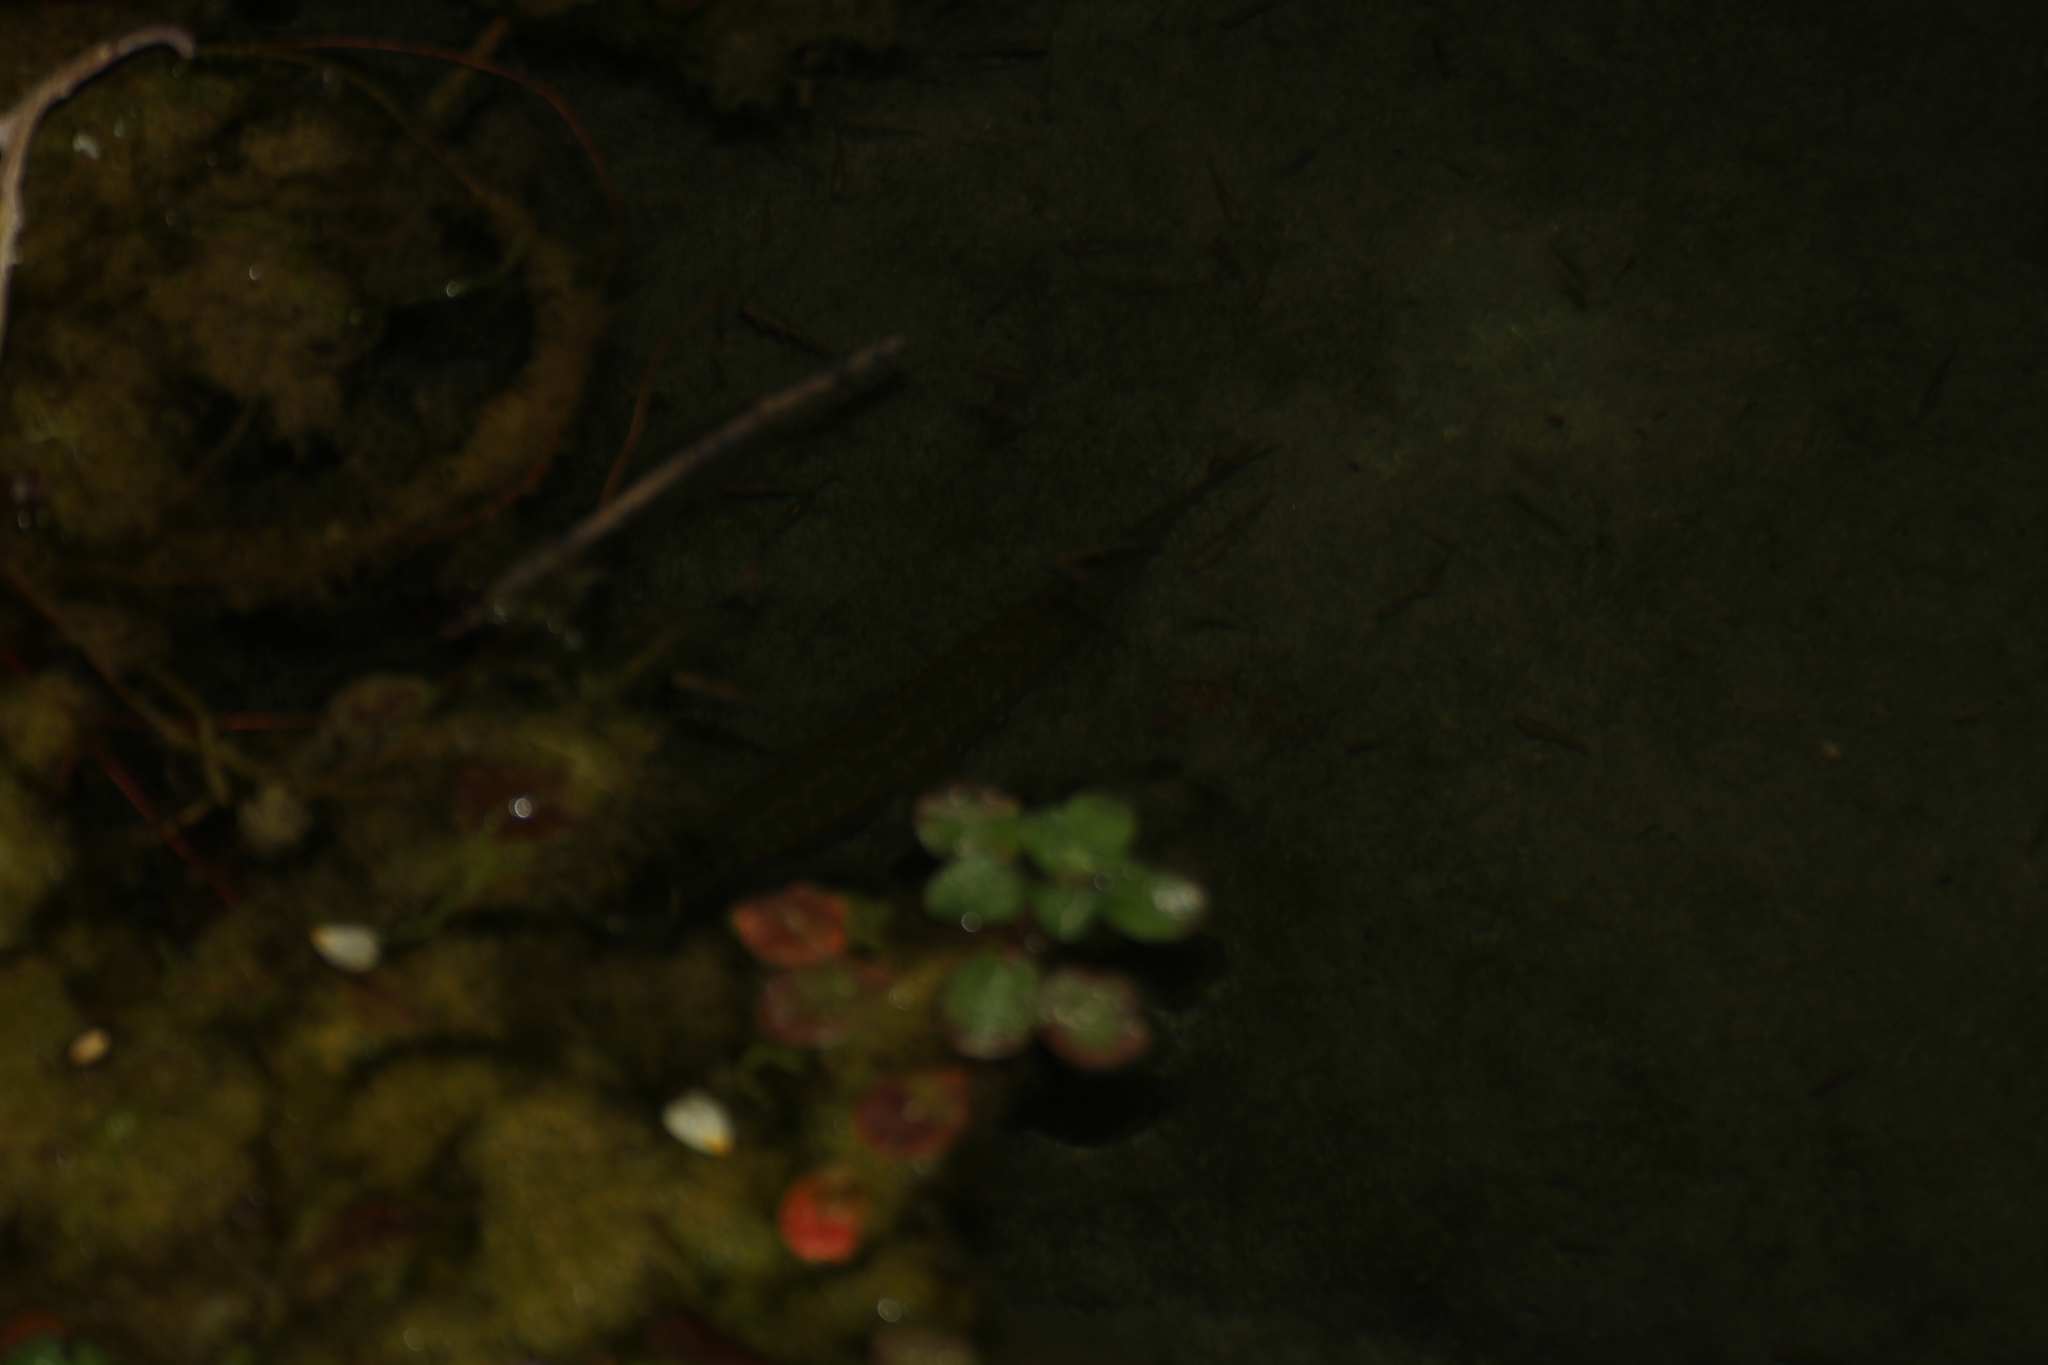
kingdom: Animalia
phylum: Chordata
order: Esociformes
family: Esocidae
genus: Esox
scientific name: Esox lucius
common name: Northern pike
